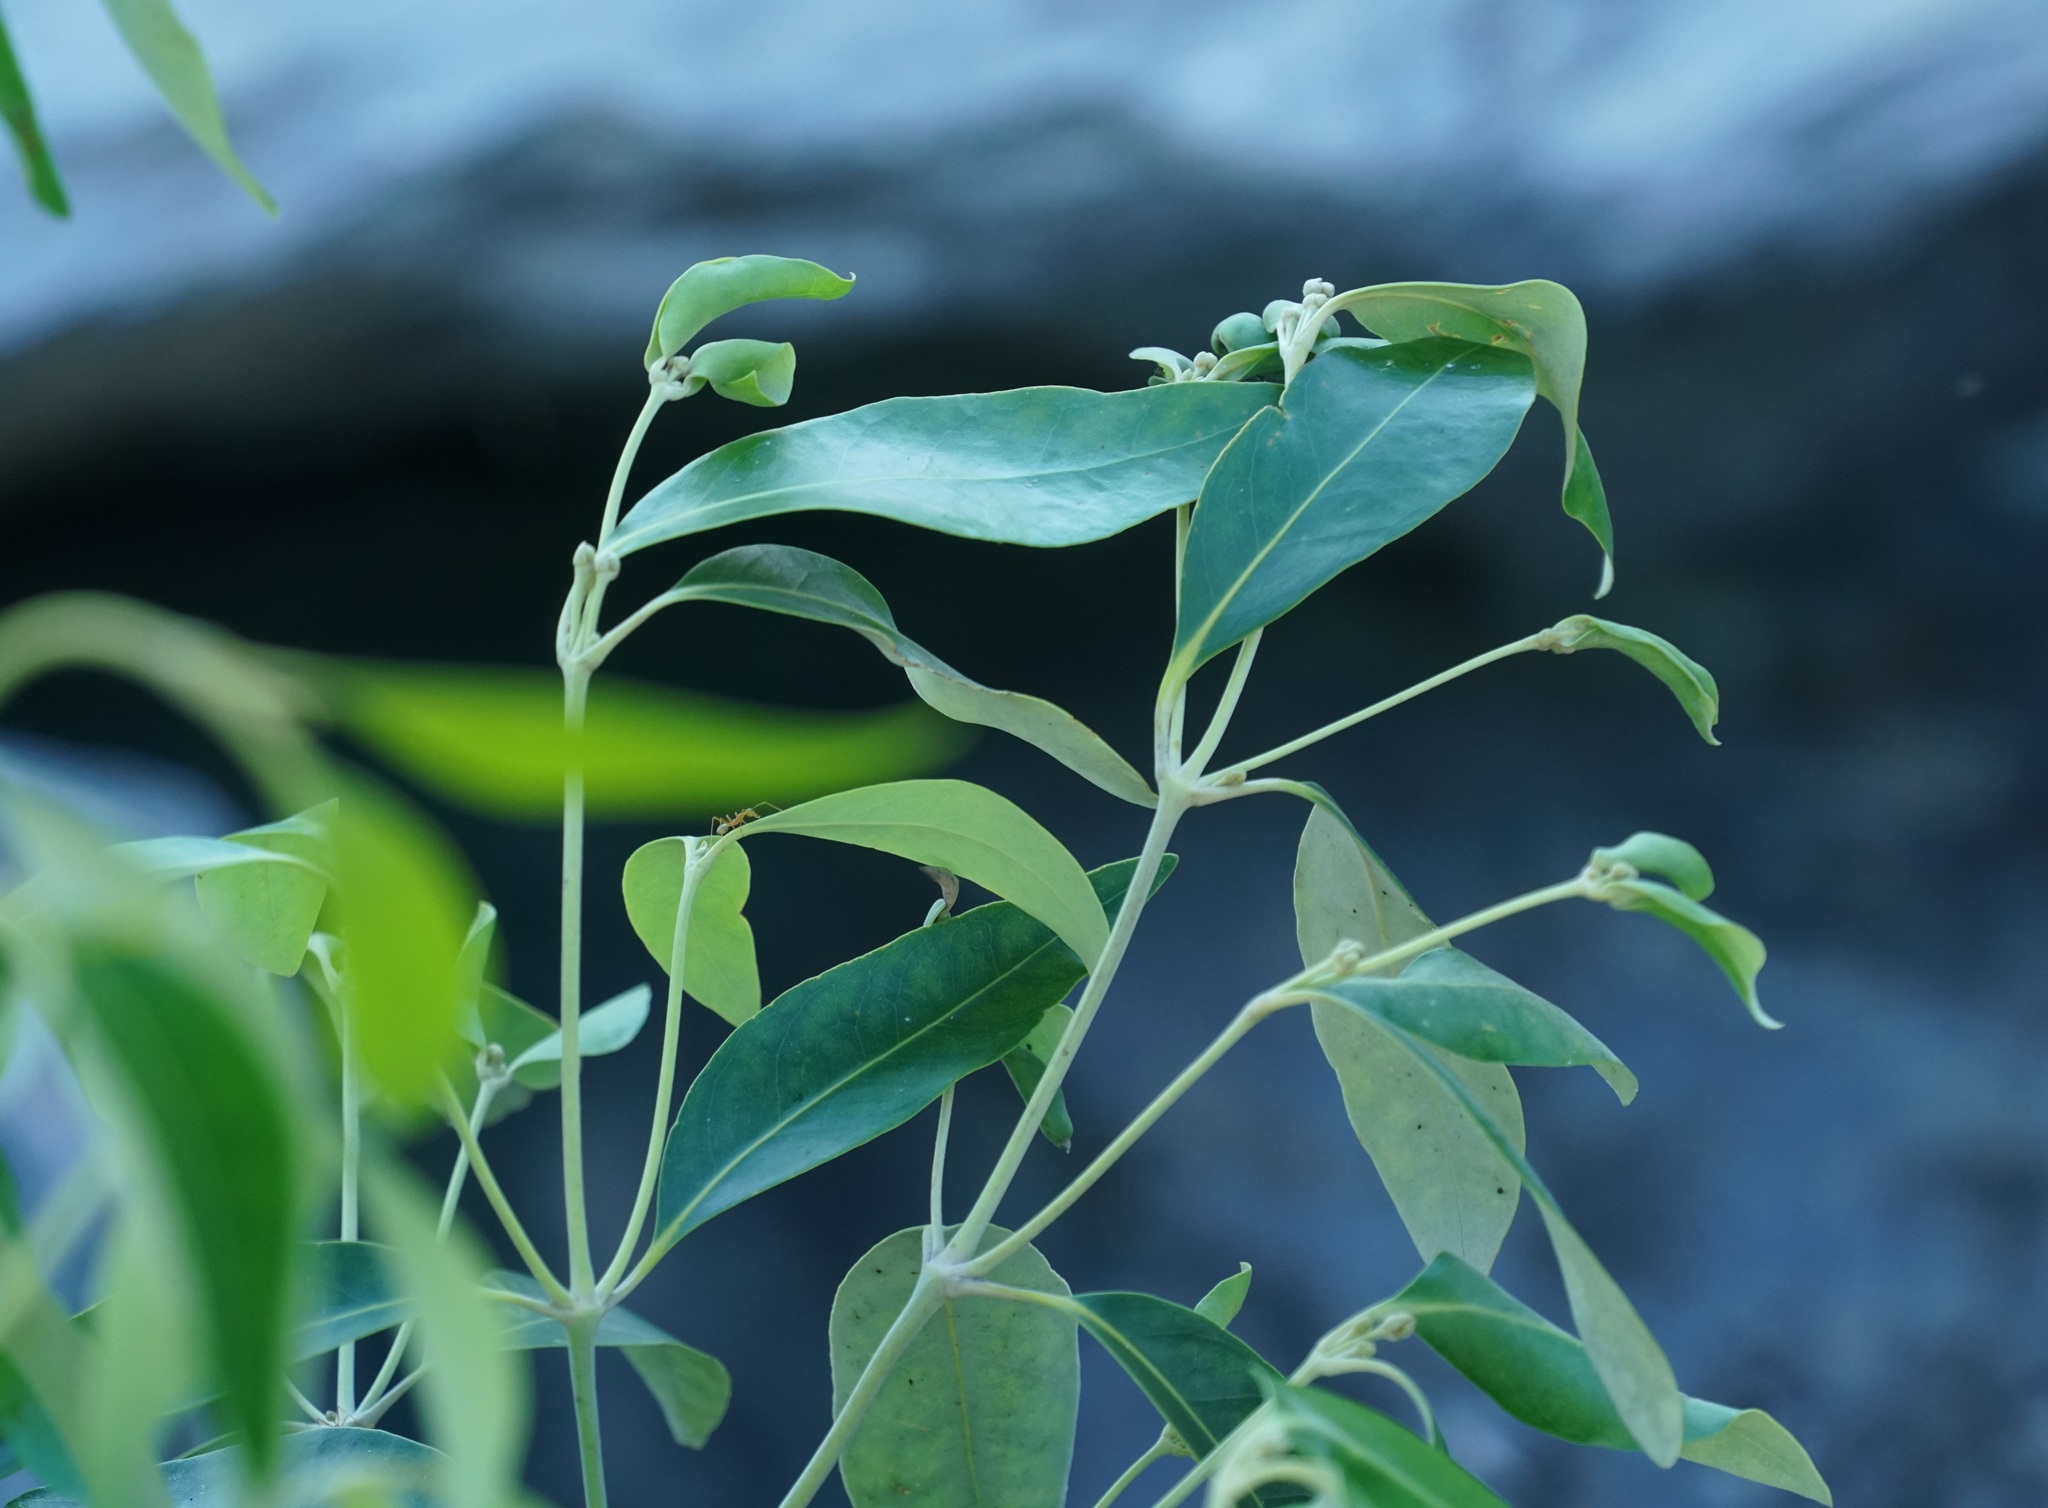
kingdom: Plantae
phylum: Tracheophyta
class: Magnoliopsida
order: Lamiales
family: Acanthaceae
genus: Avicennia
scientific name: Avicennia marina
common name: Gray mangrove
